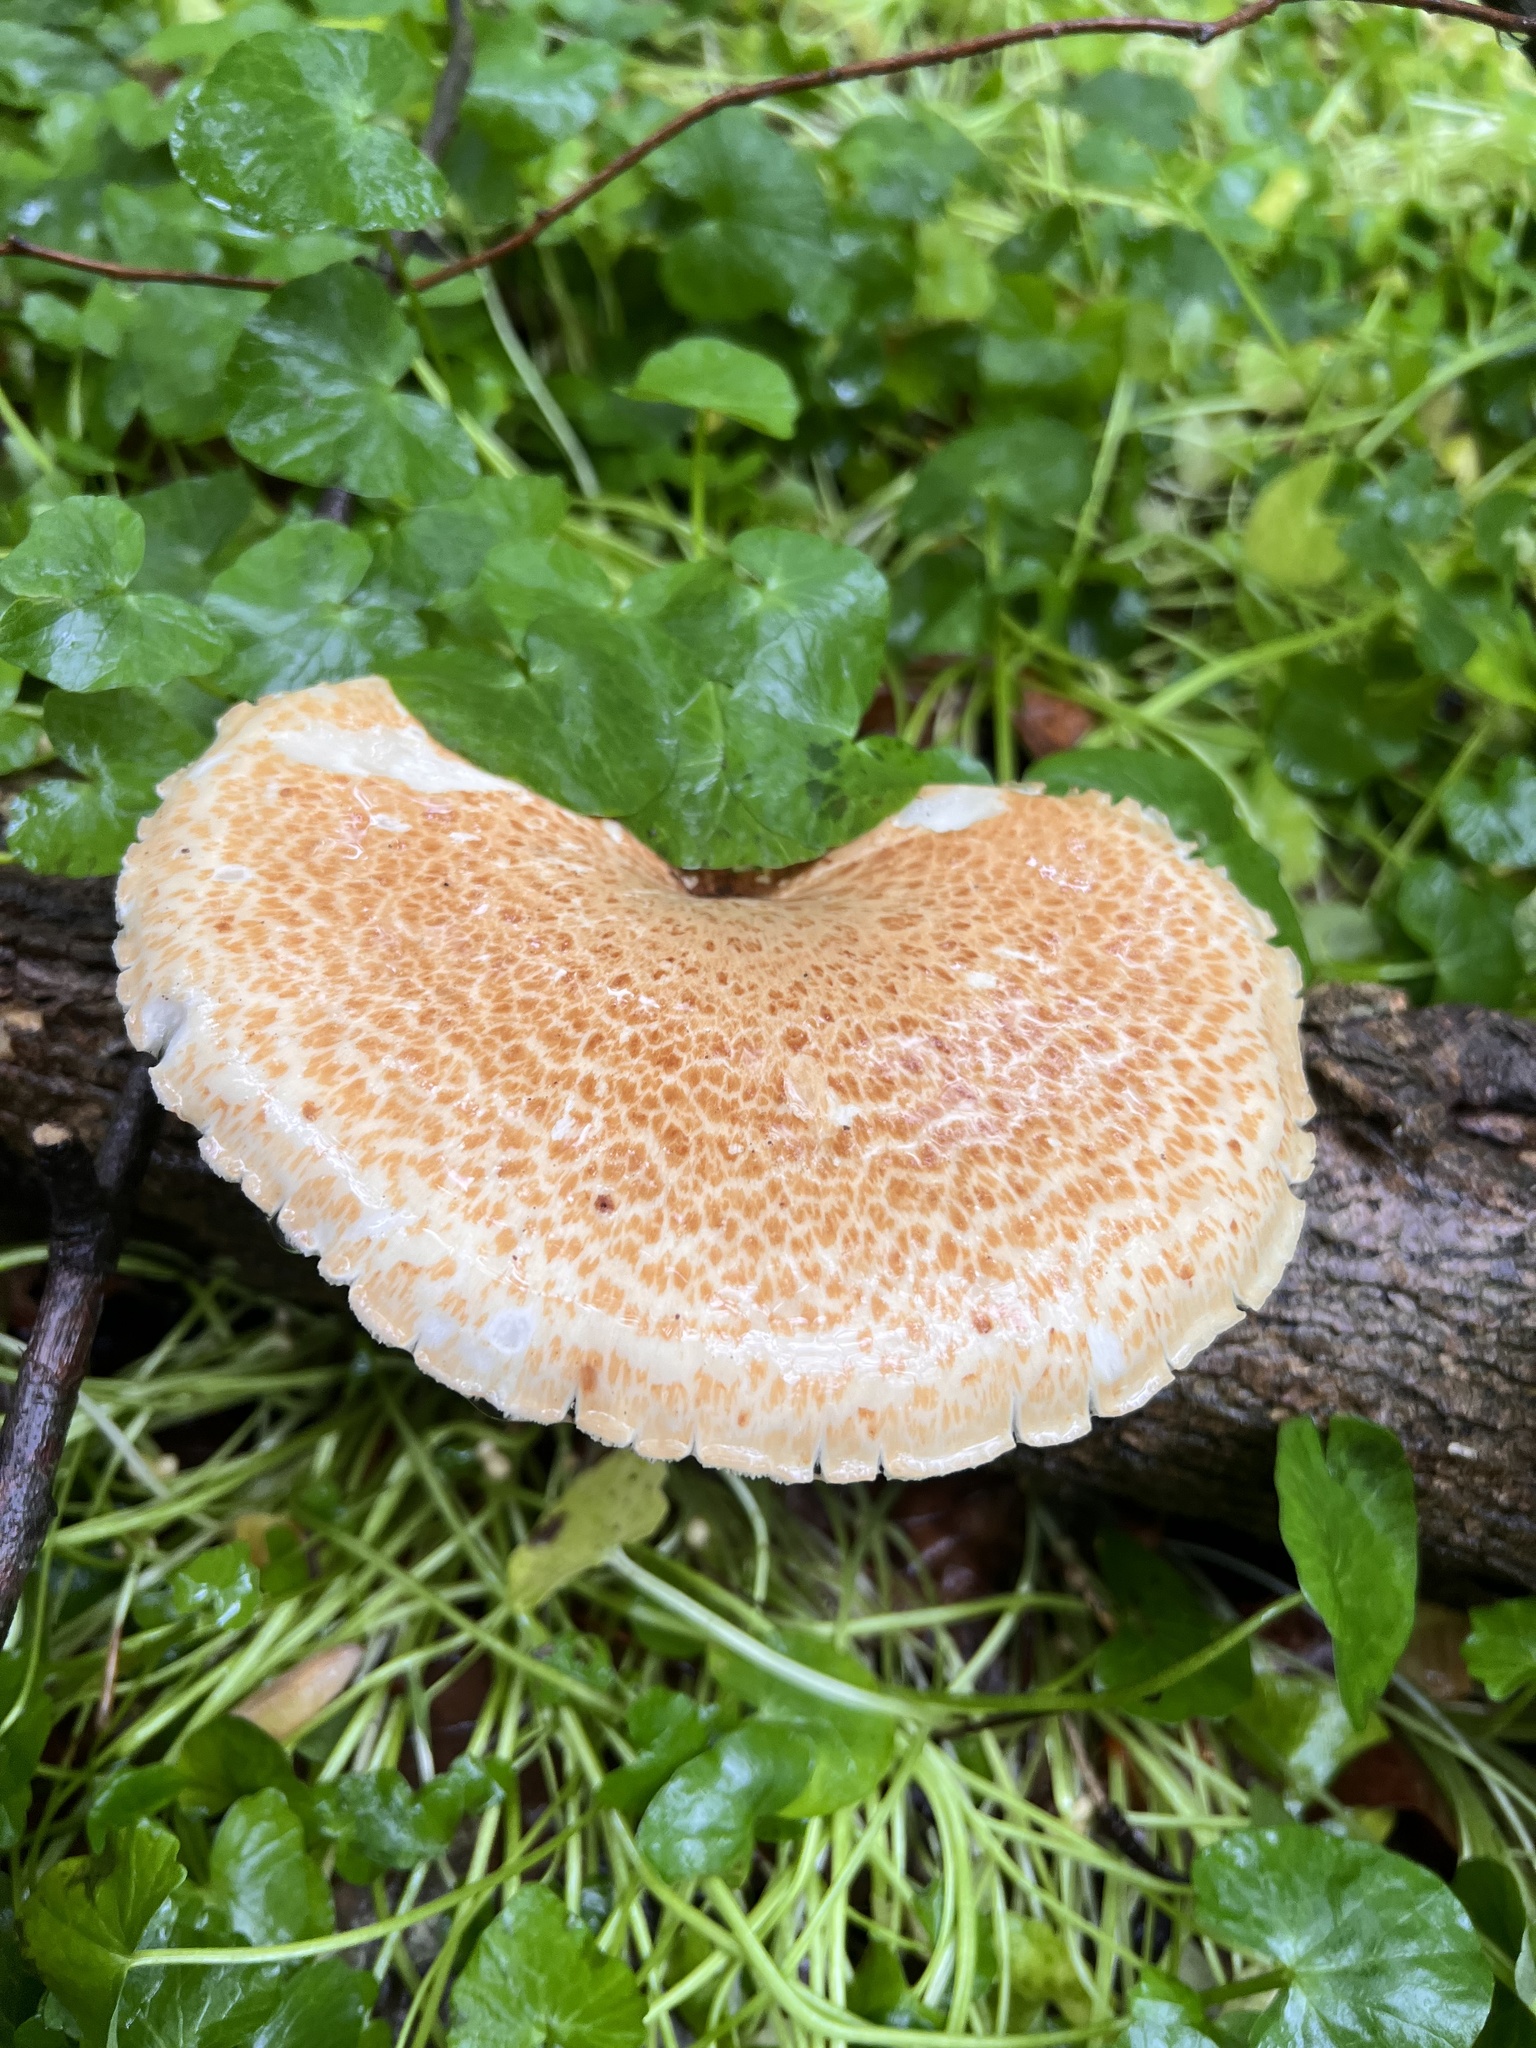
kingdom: Fungi
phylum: Basidiomycota
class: Agaricomycetes
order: Polyporales
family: Polyporaceae
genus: Cerioporus
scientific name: Cerioporus squamosus
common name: Dryad's saddle
